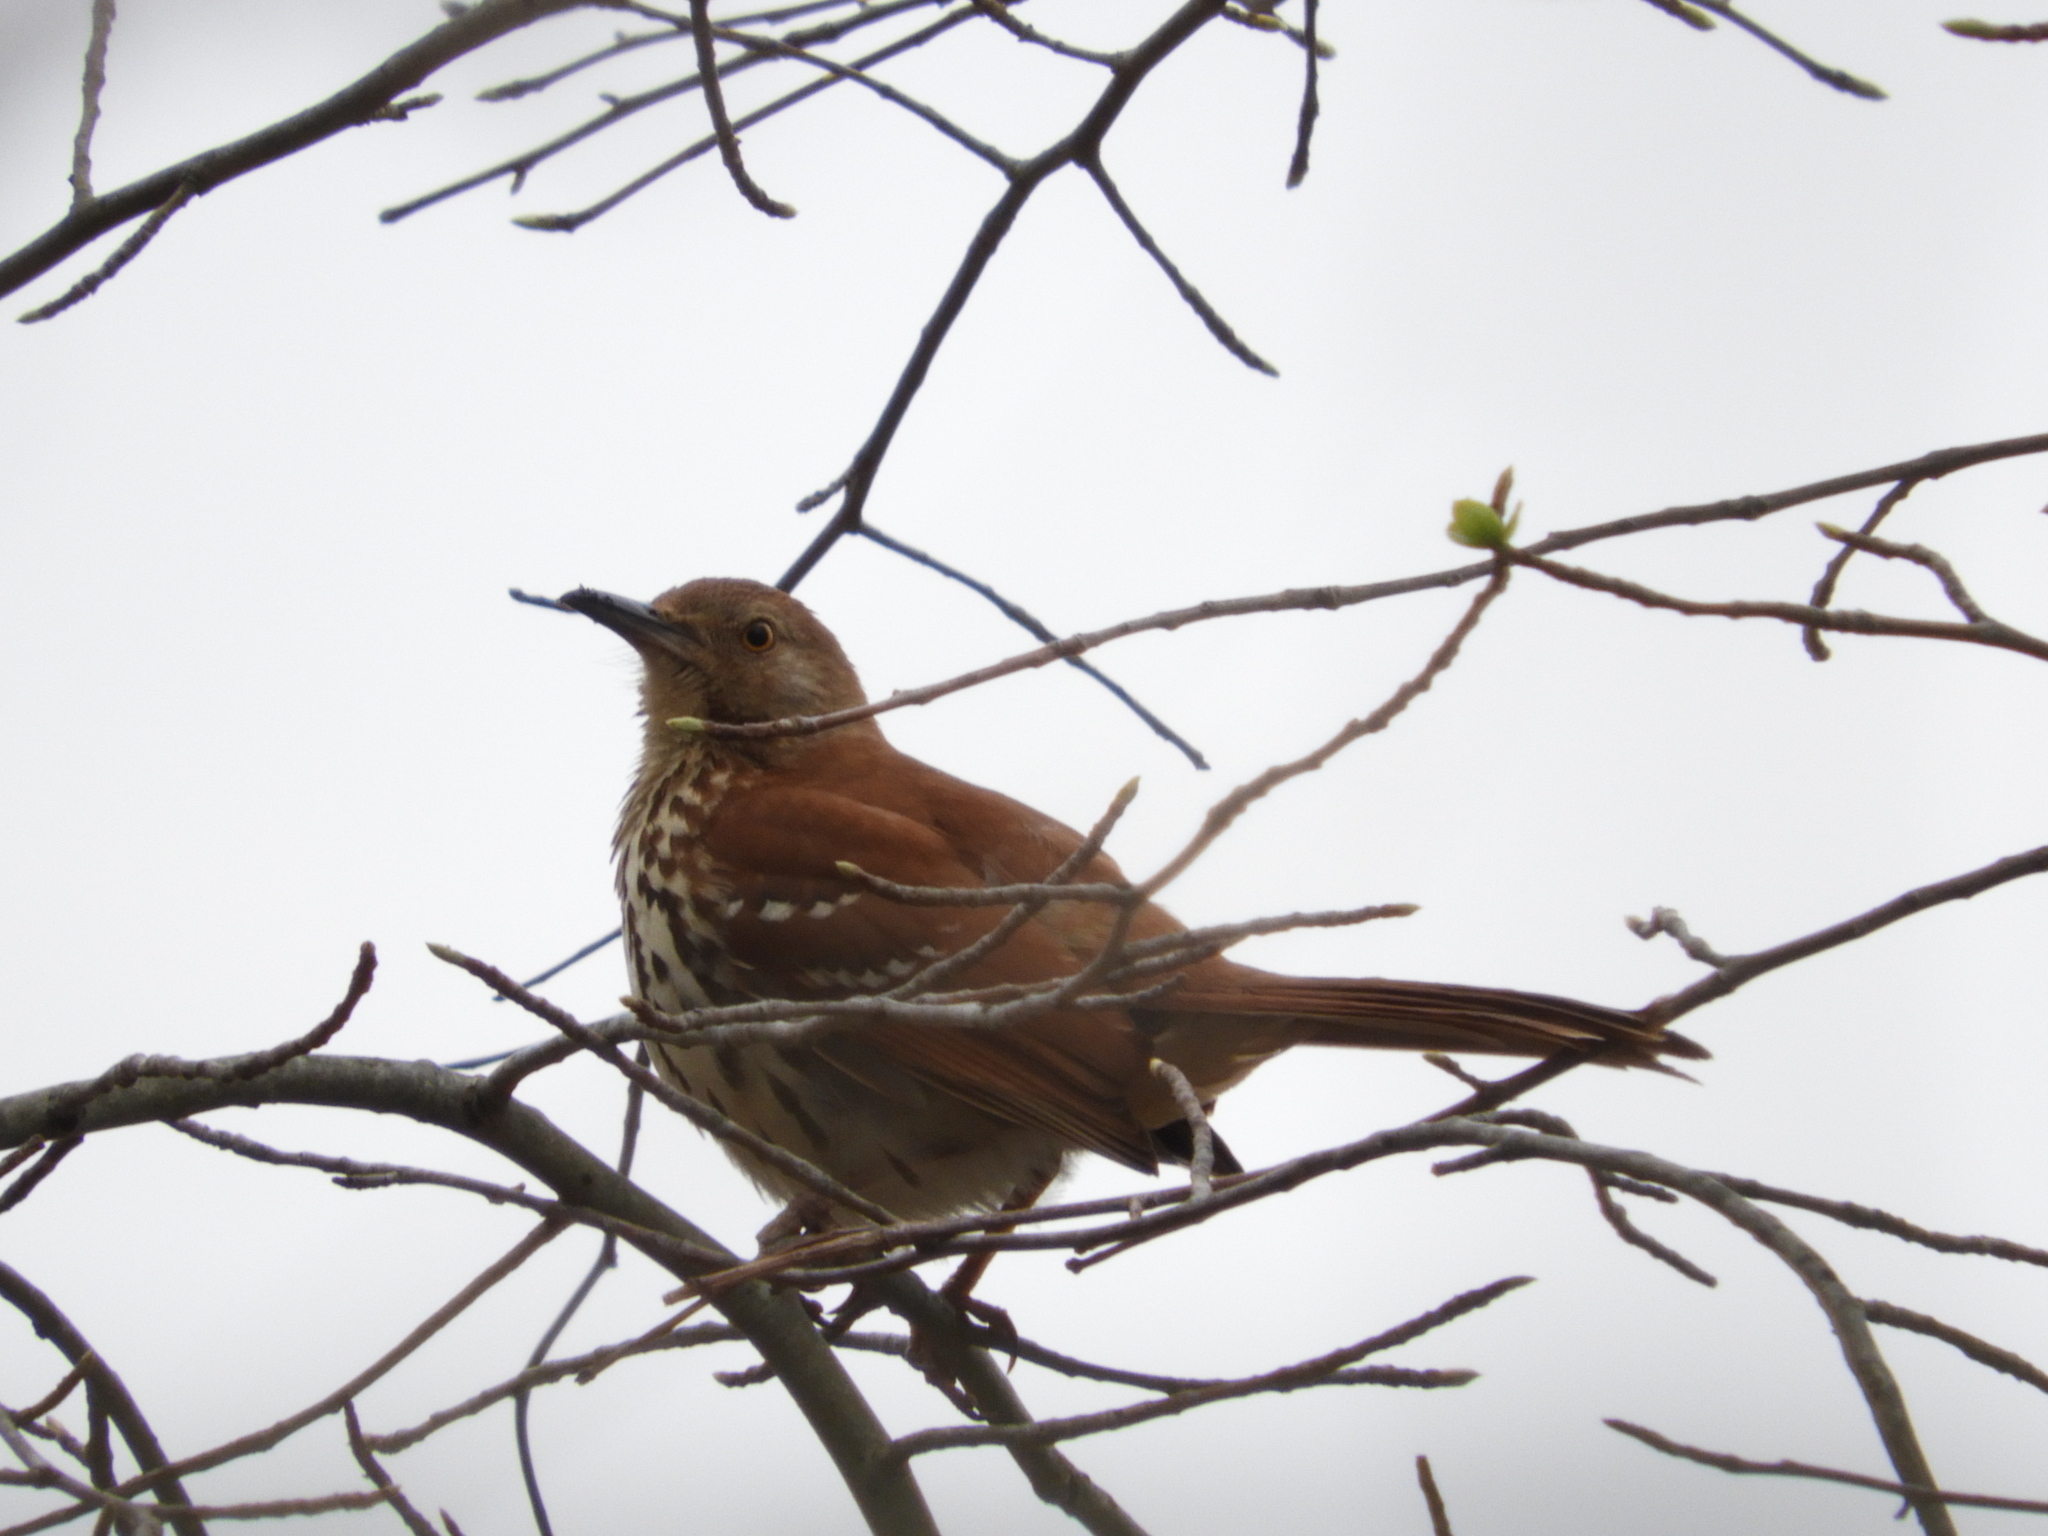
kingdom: Animalia
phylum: Chordata
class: Aves
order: Passeriformes
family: Mimidae
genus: Toxostoma
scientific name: Toxostoma rufum
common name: Brown thrasher
